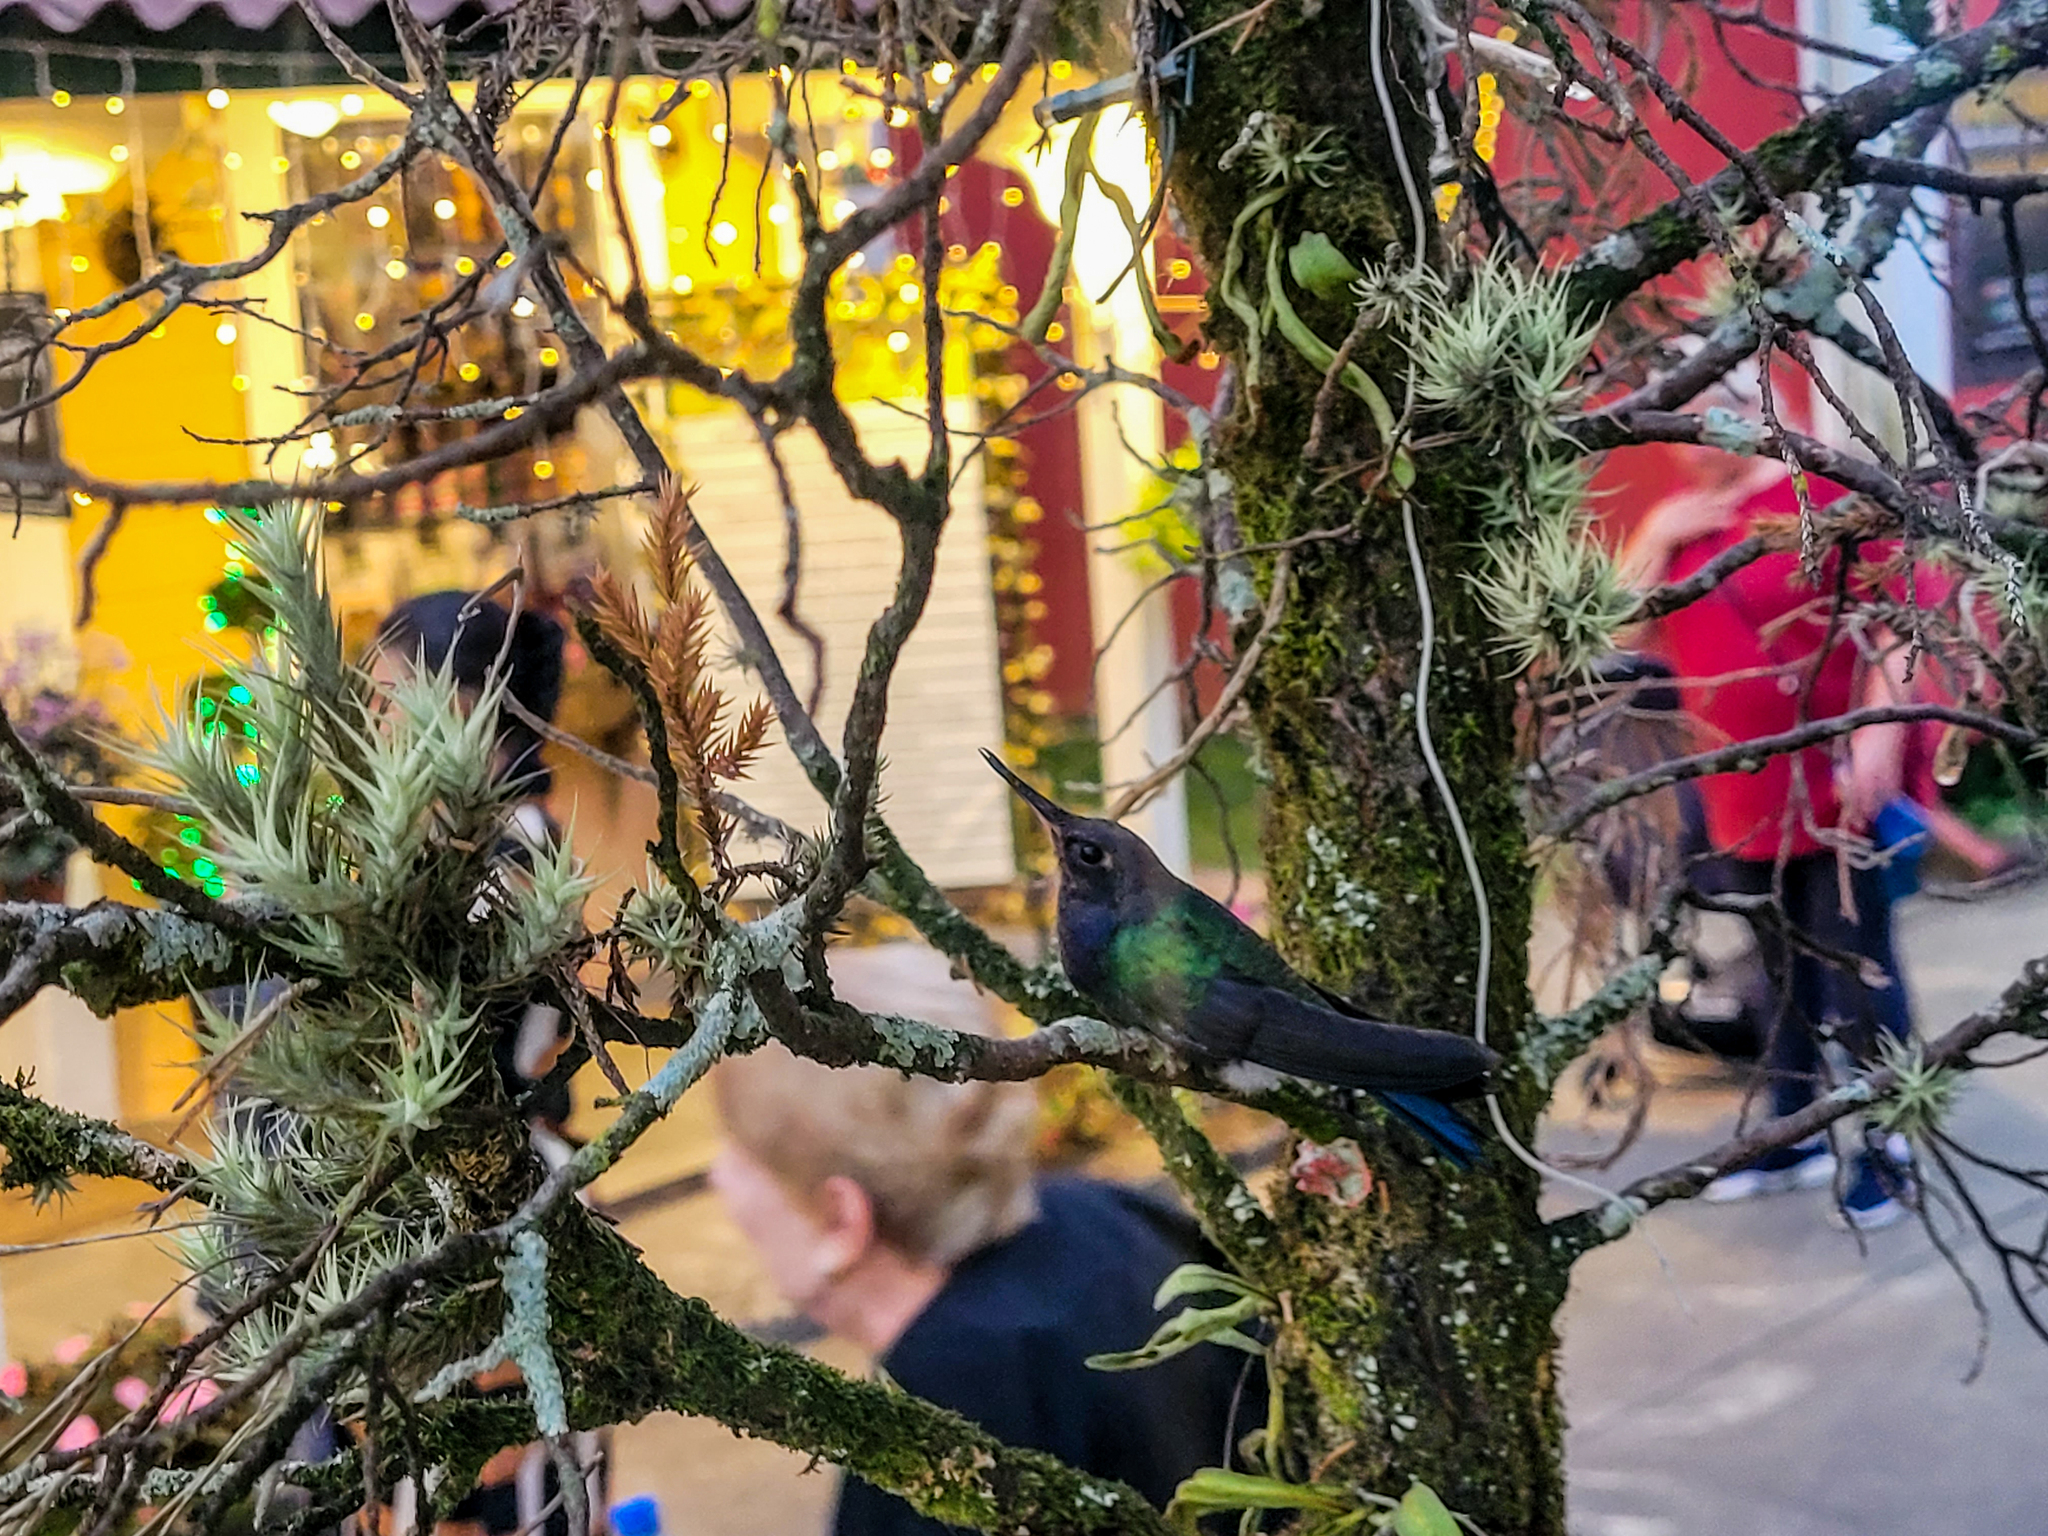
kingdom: Animalia
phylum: Chordata
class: Aves
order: Apodiformes
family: Trochilidae
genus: Eupetomena
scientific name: Eupetomena macroura
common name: Swallow-tailed hummingbird
